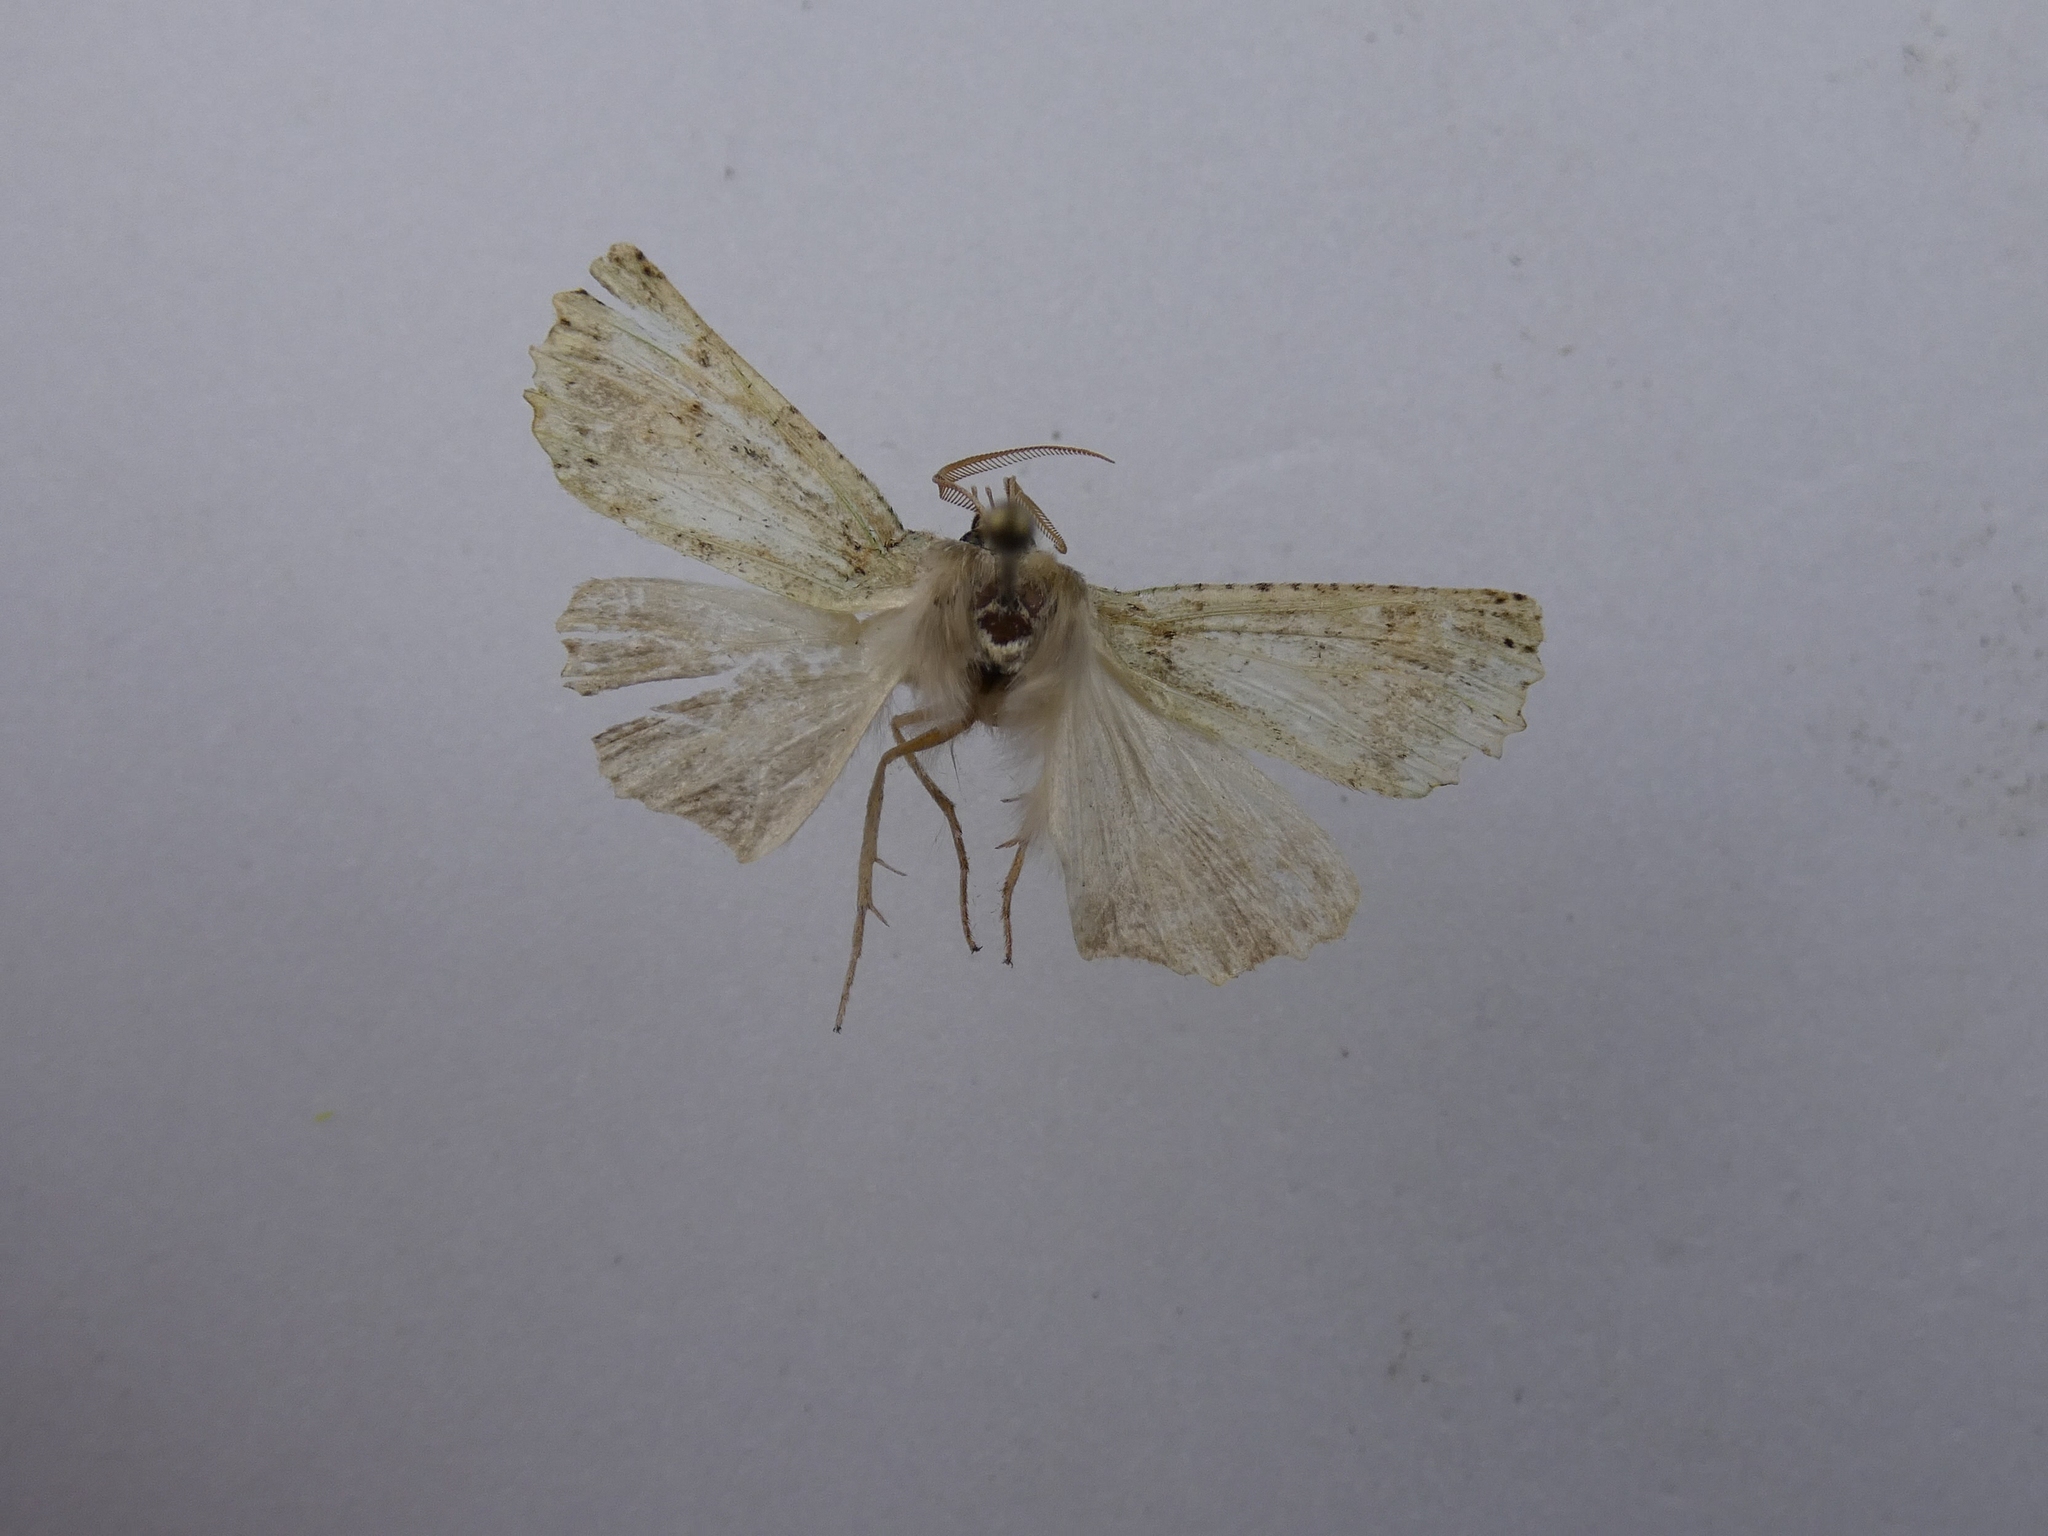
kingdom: Animalia
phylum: Arthropoda
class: Insecta
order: Lepidoptera
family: Geometridae
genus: Declana
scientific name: Declana floccosa
